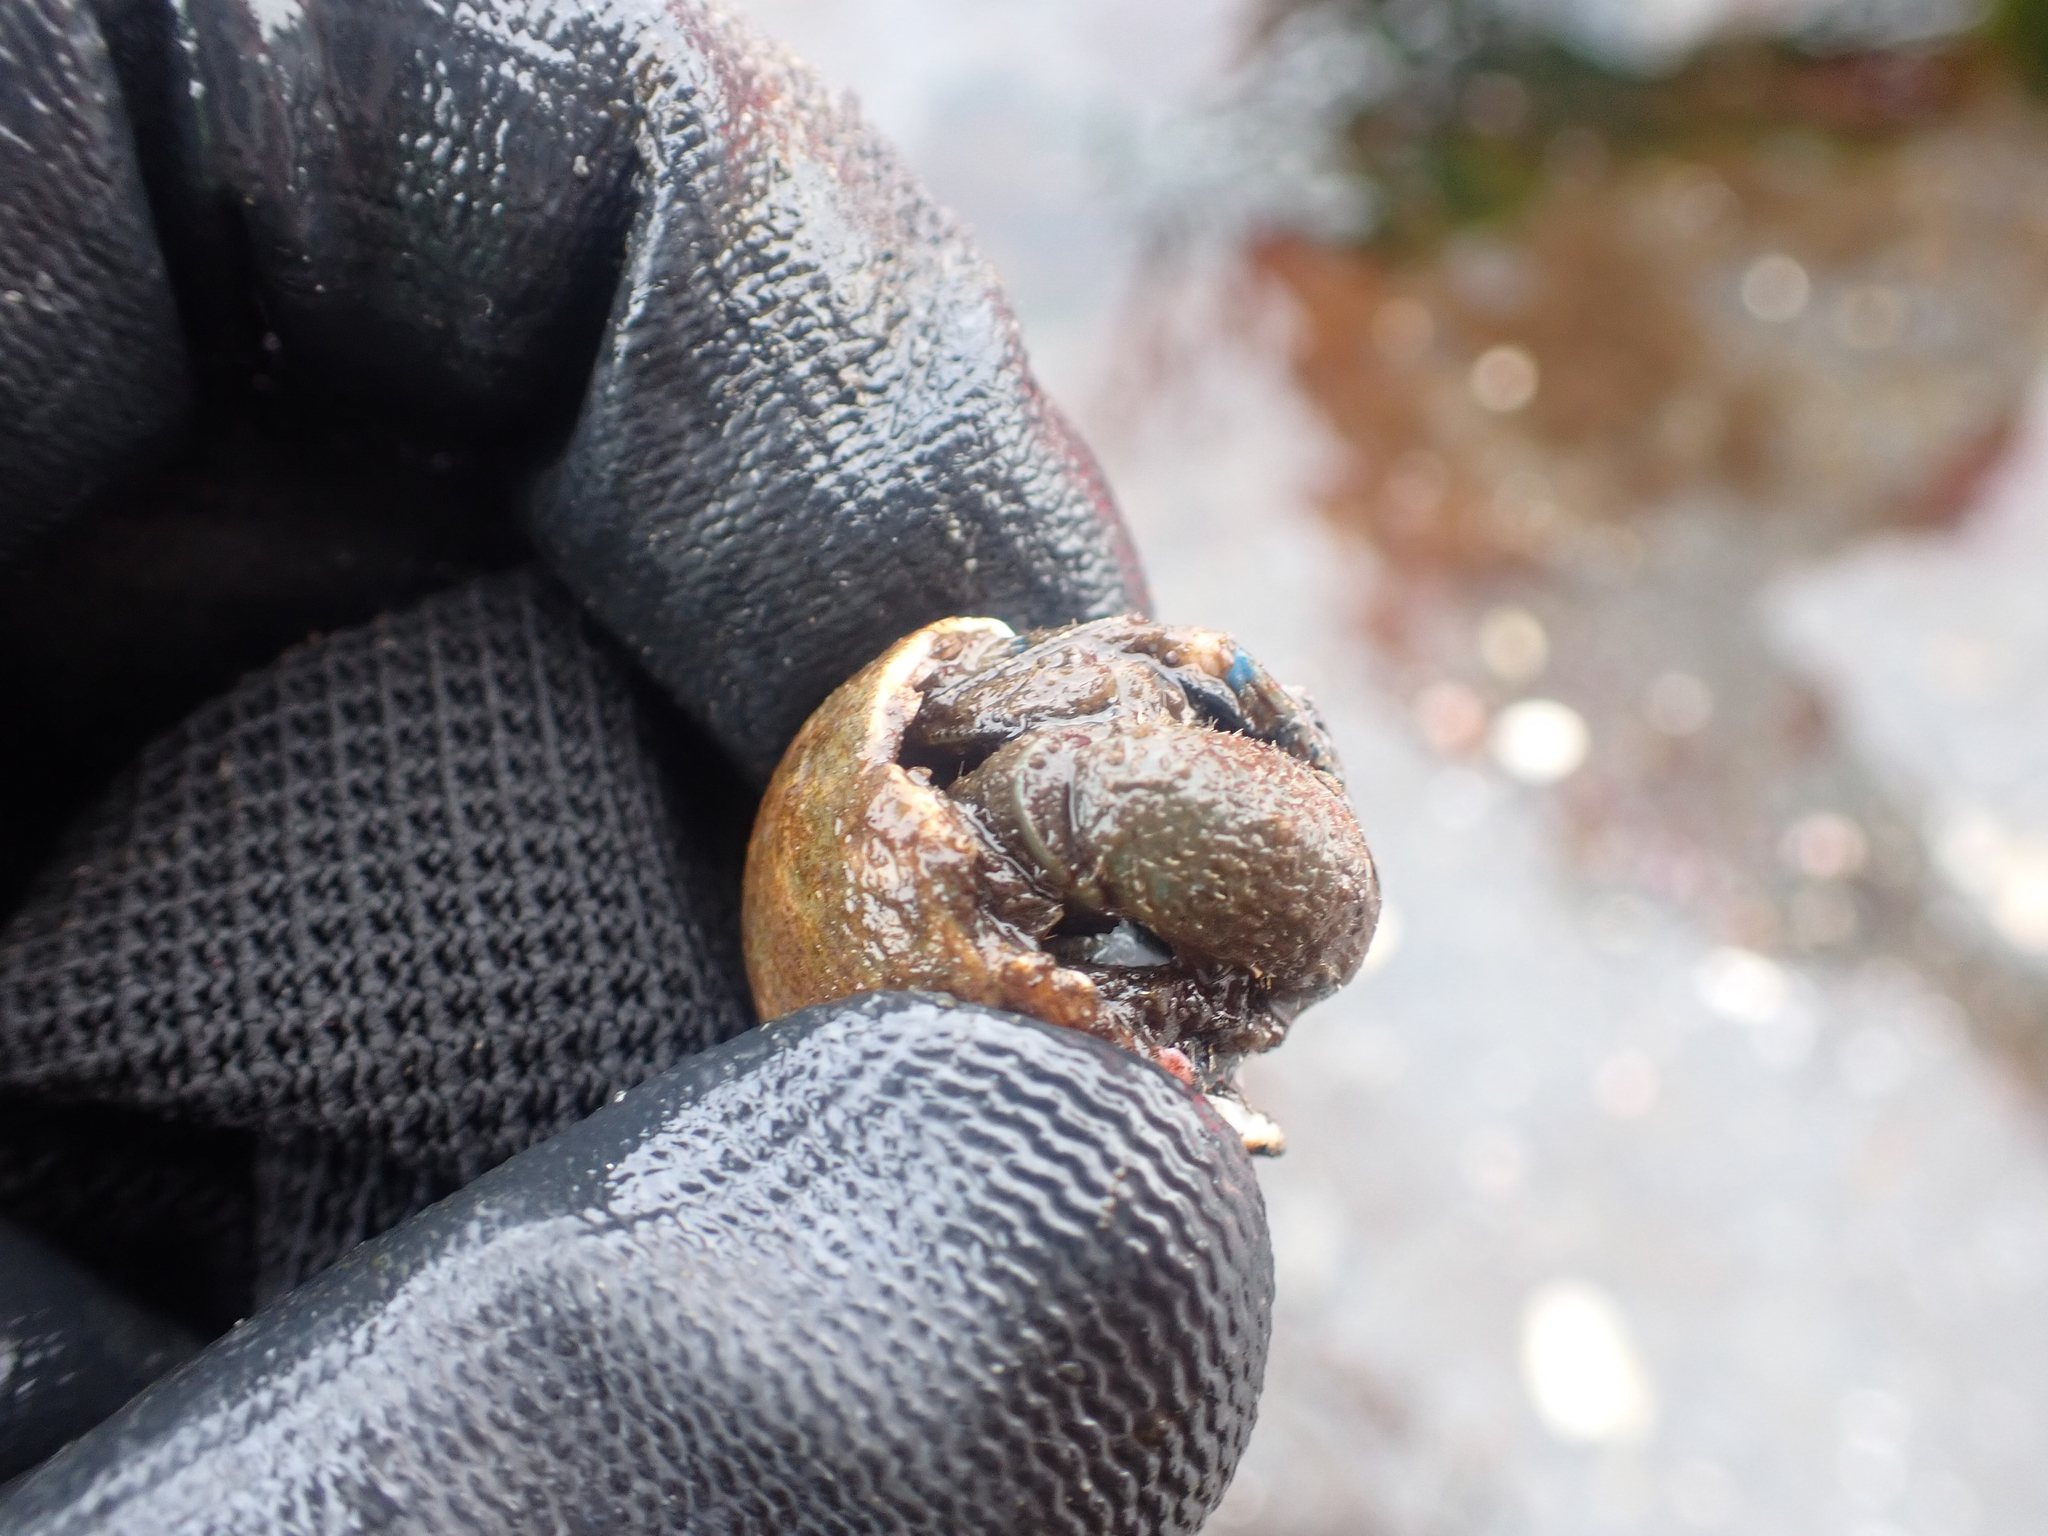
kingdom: Animalia
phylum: Arthropoda
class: Malacostraca
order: Decapoda
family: Paguridae
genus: Pagurus
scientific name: Pagurus hirsutiusculus
